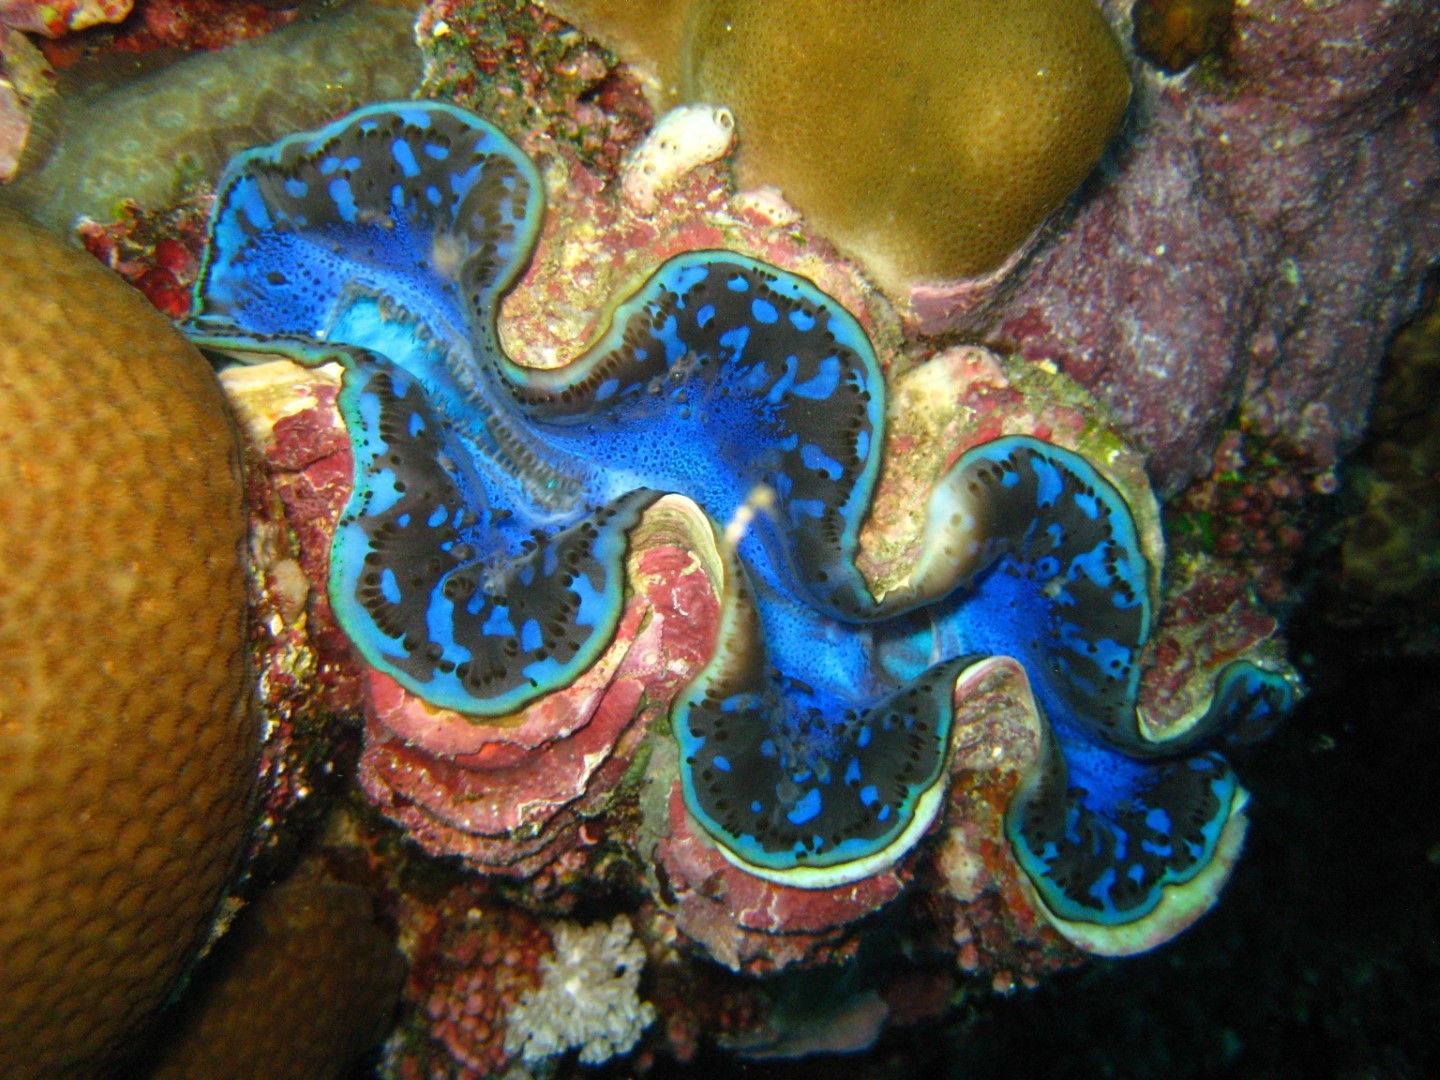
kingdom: Animalia
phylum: Mollusca
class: Bivalvia
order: Cardiida
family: Cardiidae
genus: Tridacna
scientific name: Tridacna maxima
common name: Small giant clam
